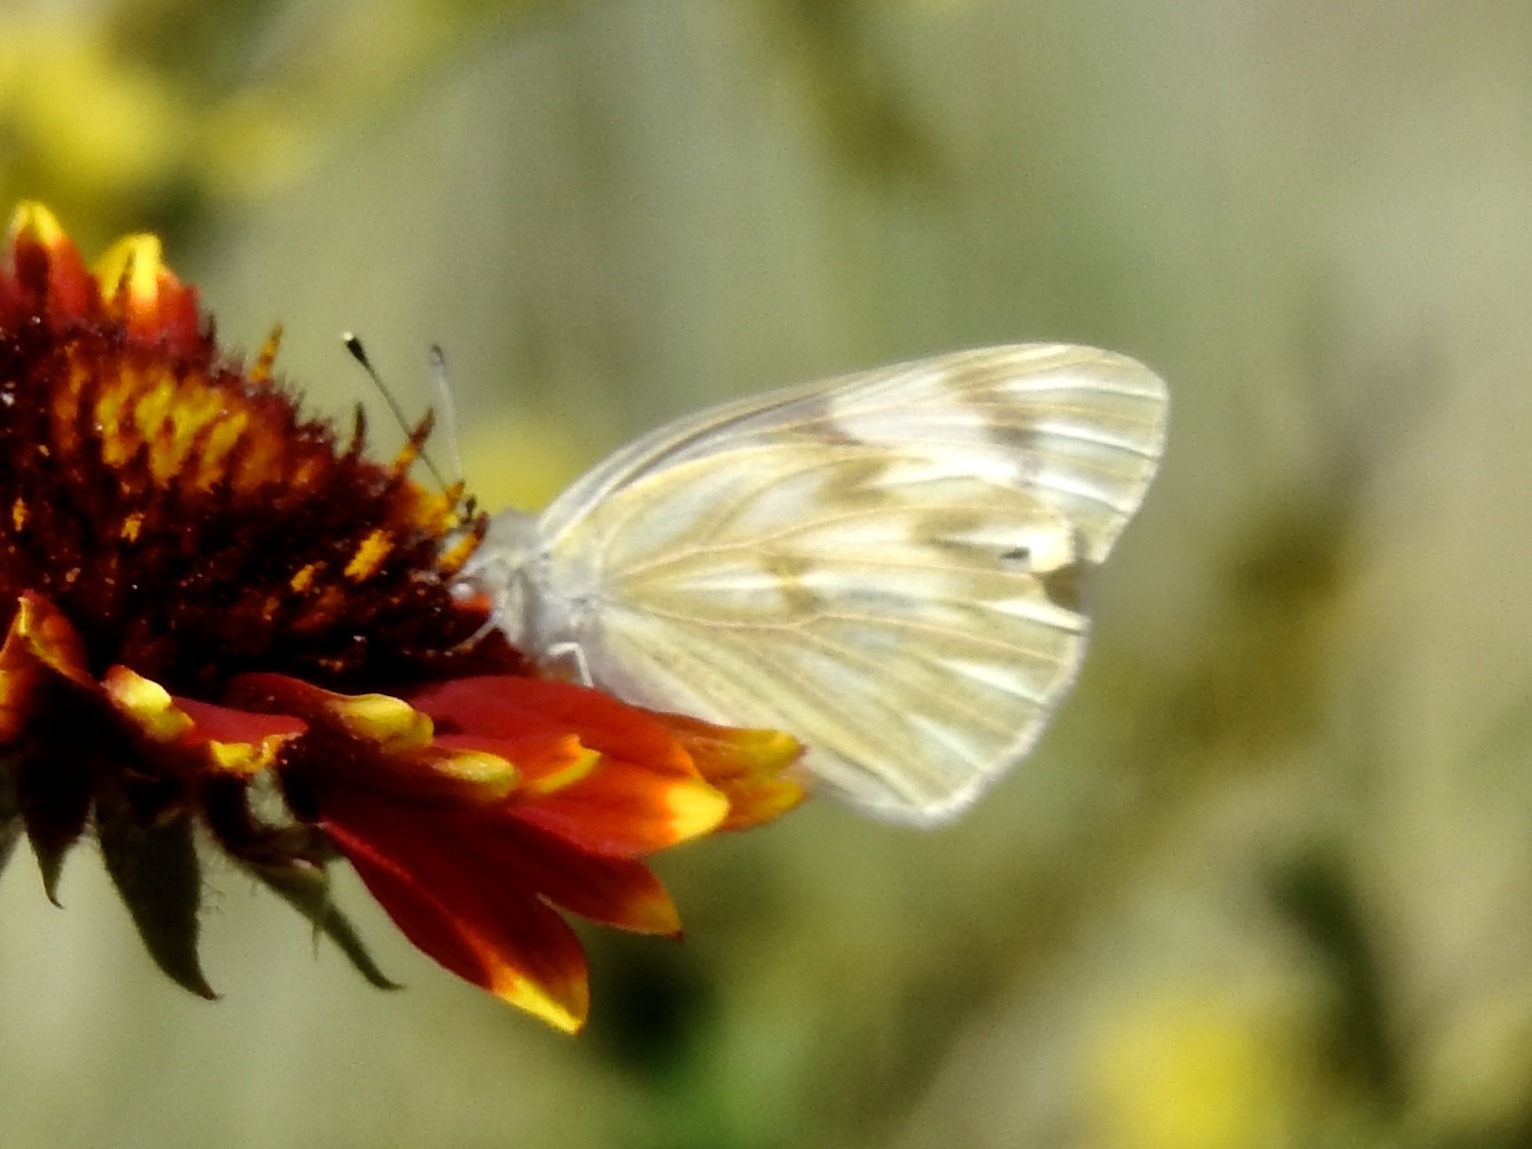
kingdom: Animalia
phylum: Arthropoda
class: Insecta
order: Lepidoptera
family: Pieridae
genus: Pontia
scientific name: Pontia protodice
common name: Checkered white
